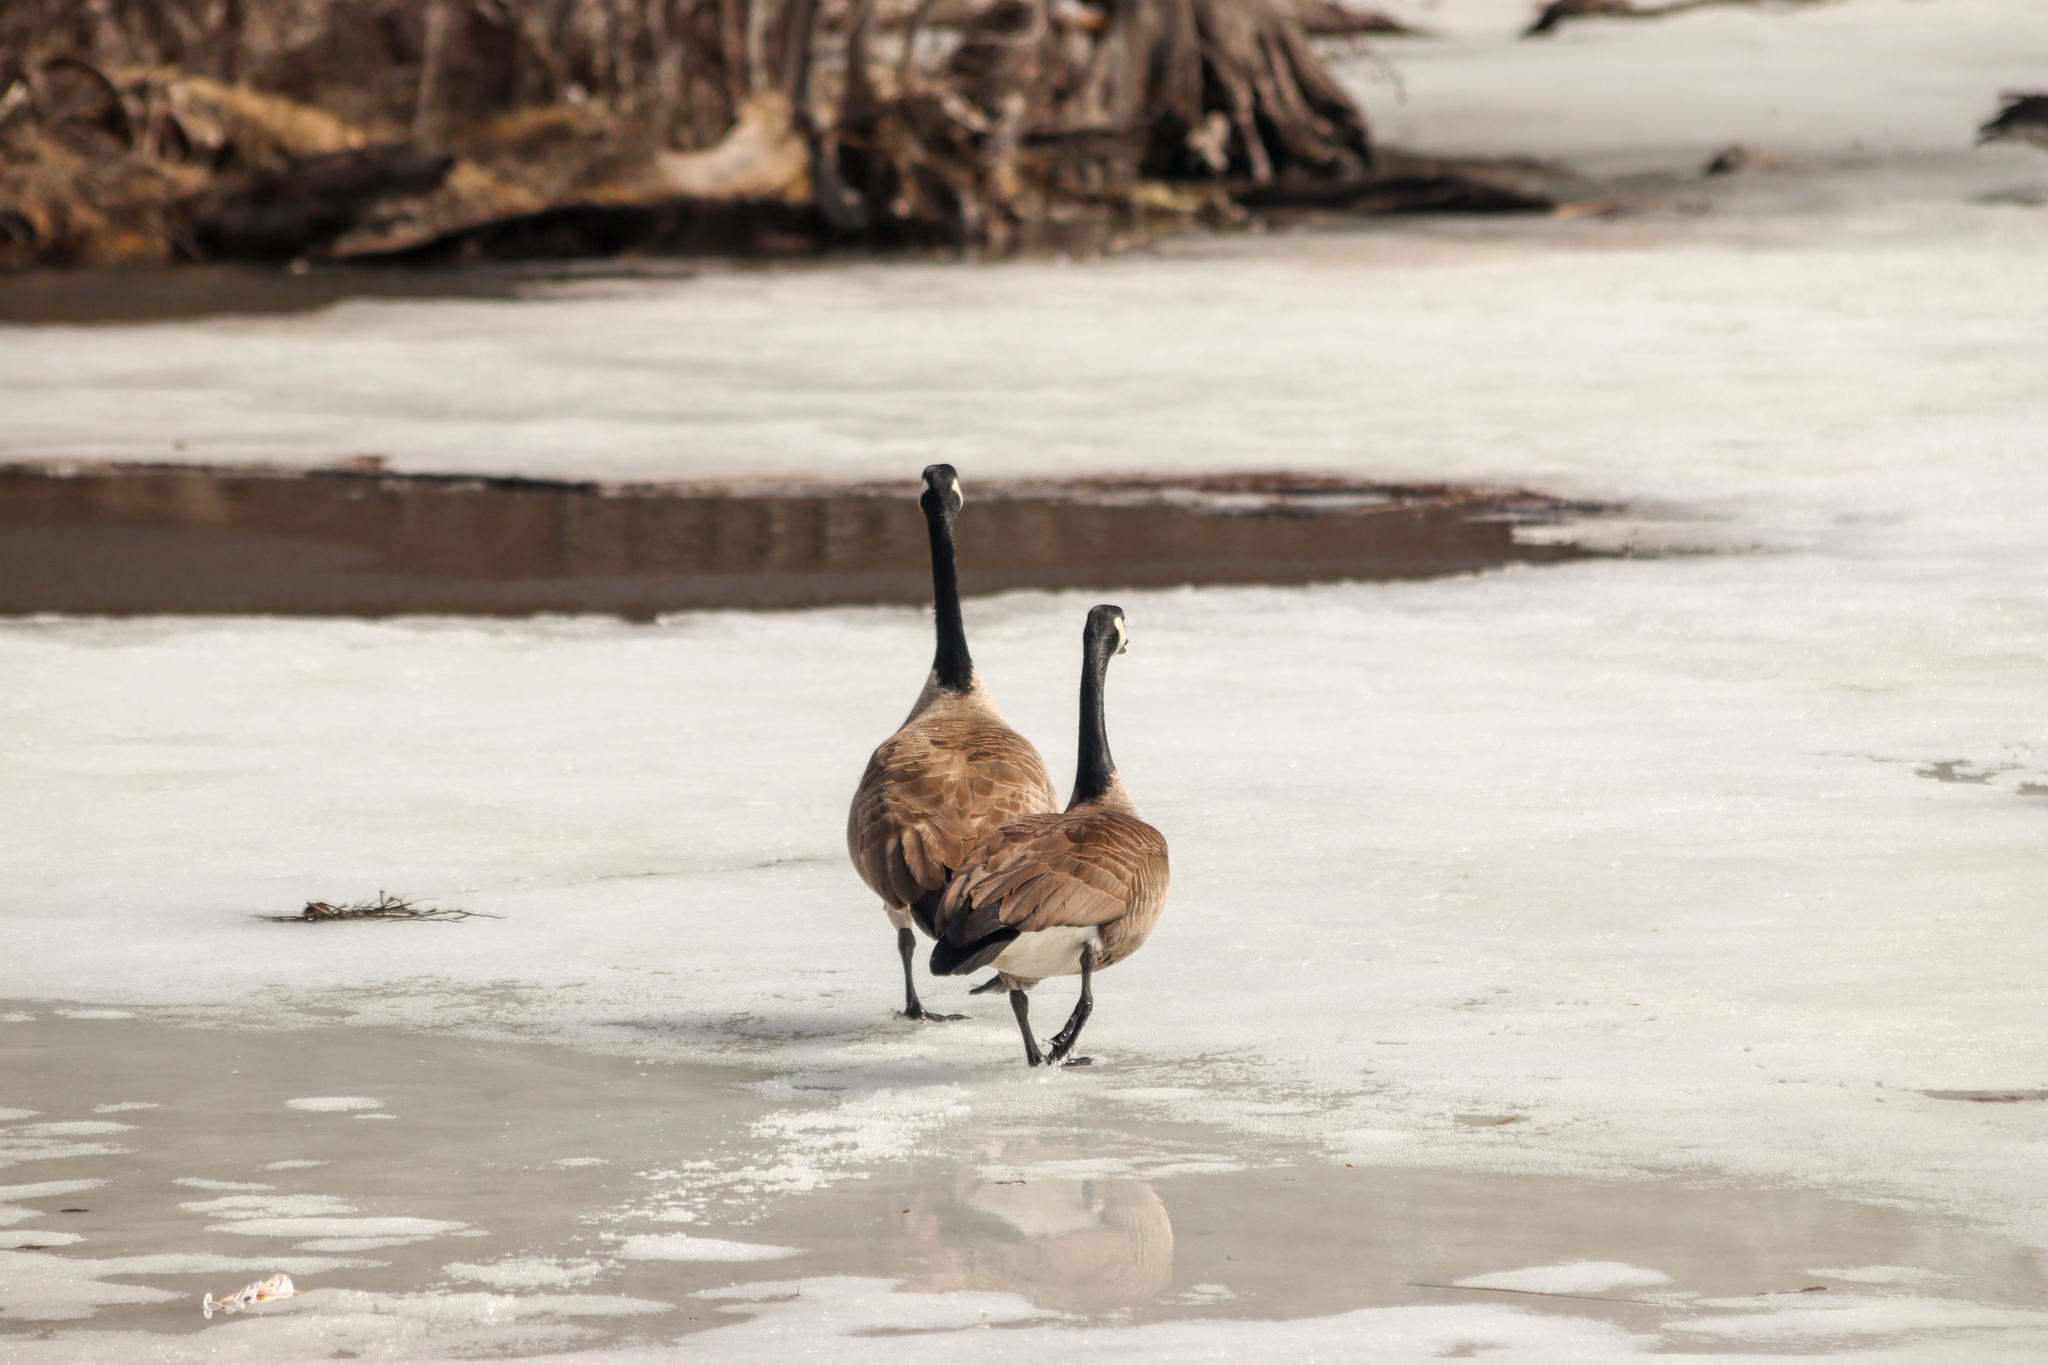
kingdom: Animalia
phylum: Chordata
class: Aves
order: Anseriformes
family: Anatidae
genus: Branta
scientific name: Branta canadensis
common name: Canada goose
